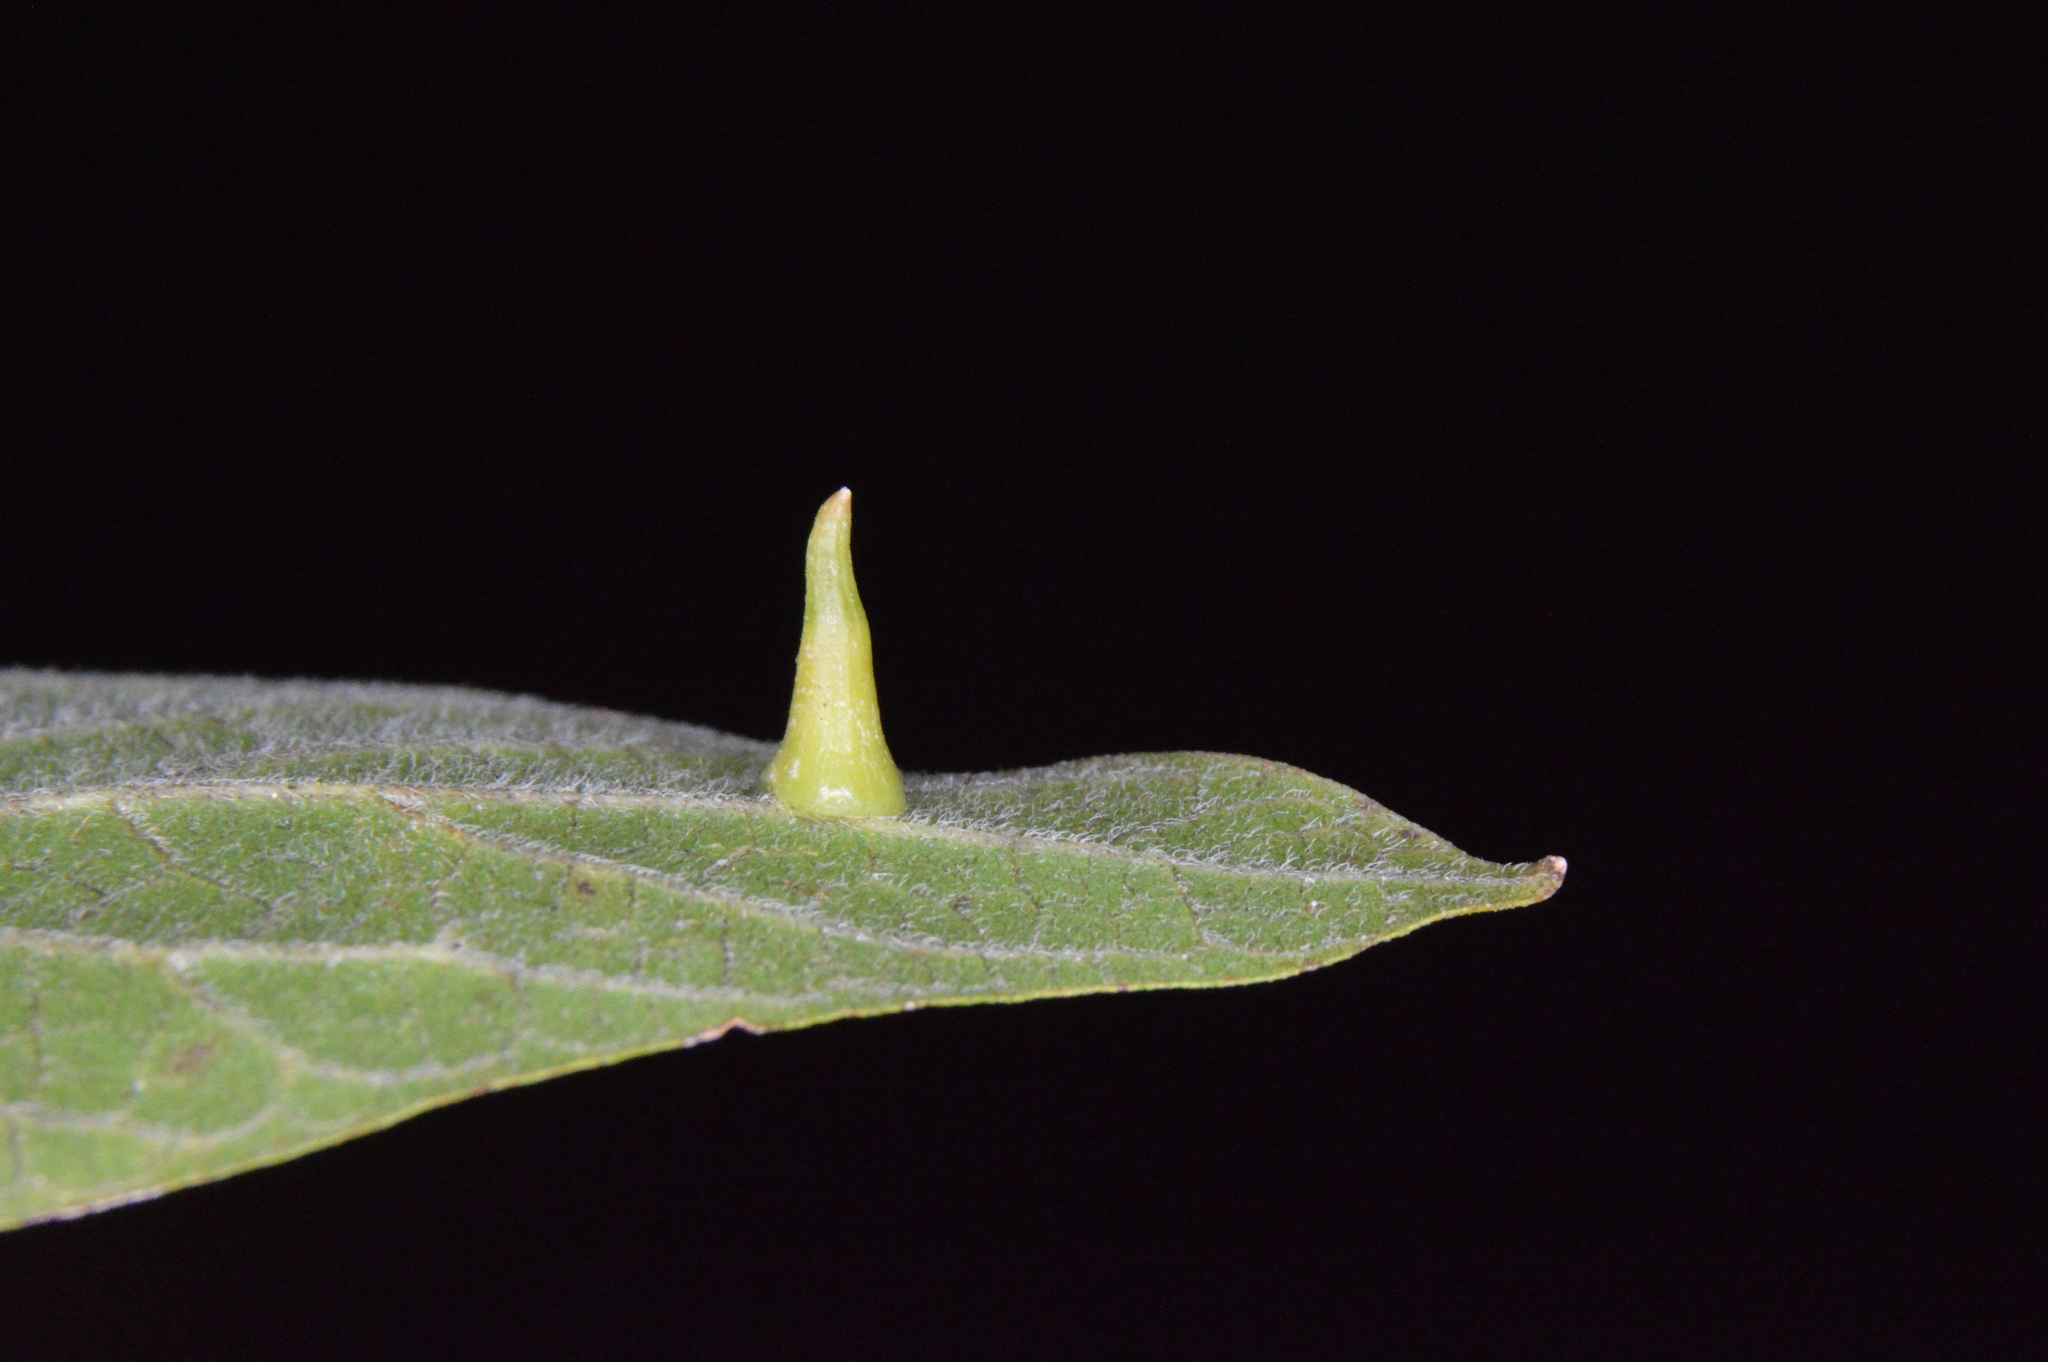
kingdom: Animalia
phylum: Arthropoda
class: Insecta
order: Diptera
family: Cecidomyiidae
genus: Celticecis
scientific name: Celticecis subulata
